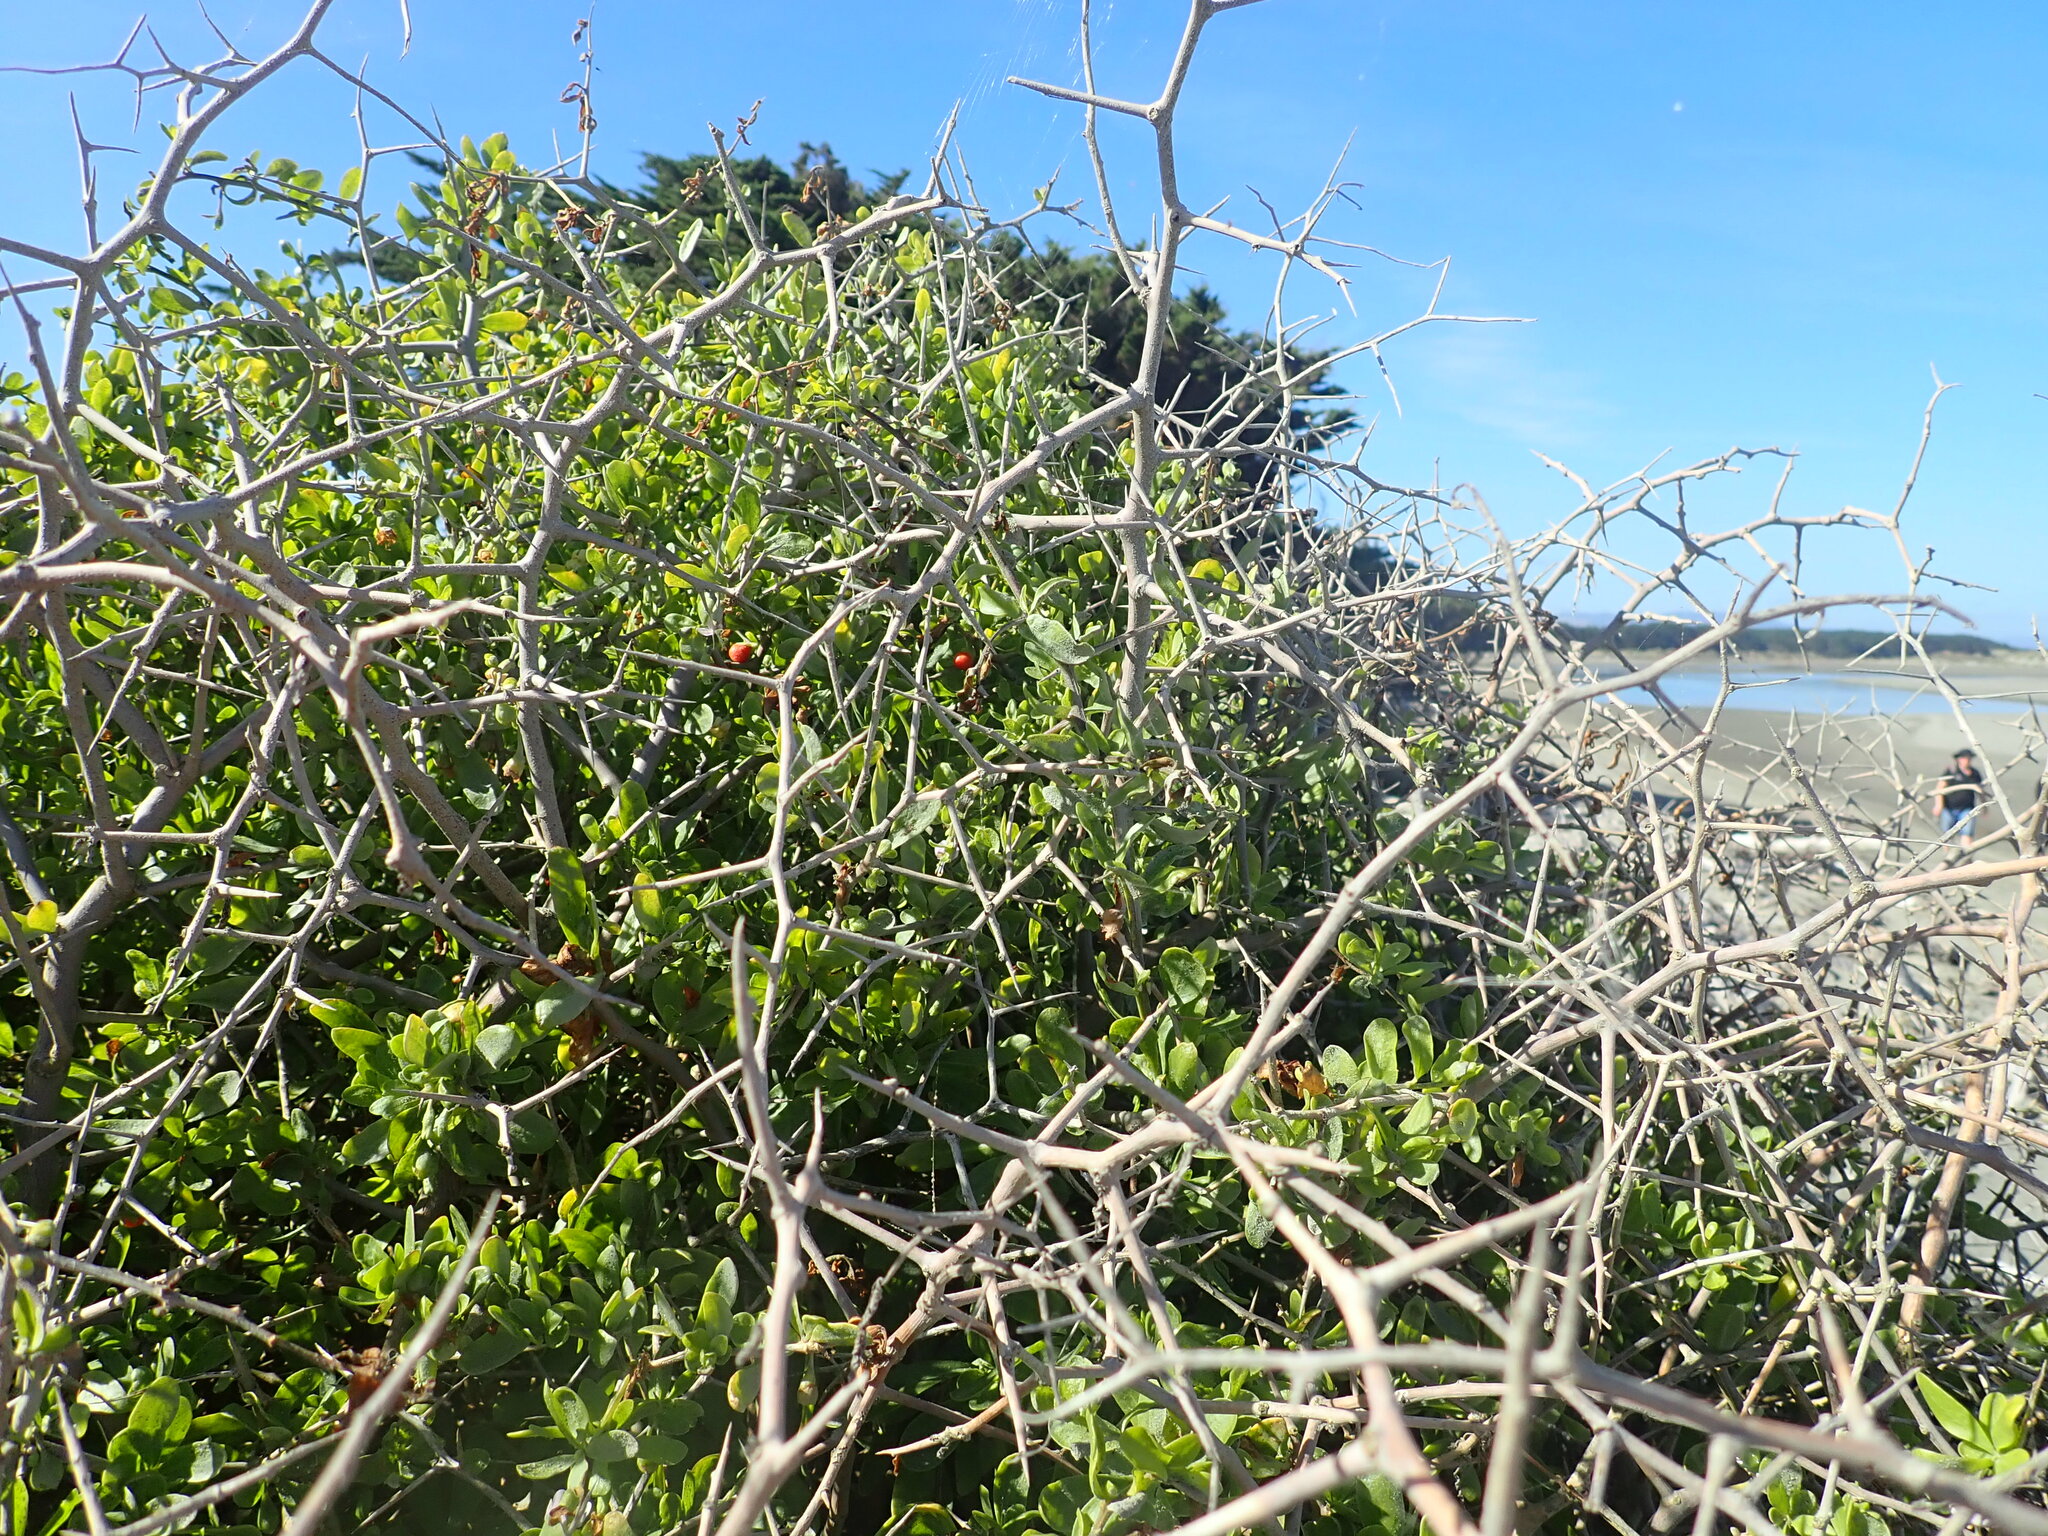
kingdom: Plantae
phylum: Tracheophyta
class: Magnoliopsida
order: Solanales
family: Solanaceae
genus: Lycium
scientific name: Lycium ferocissimum
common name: African boxthorn
